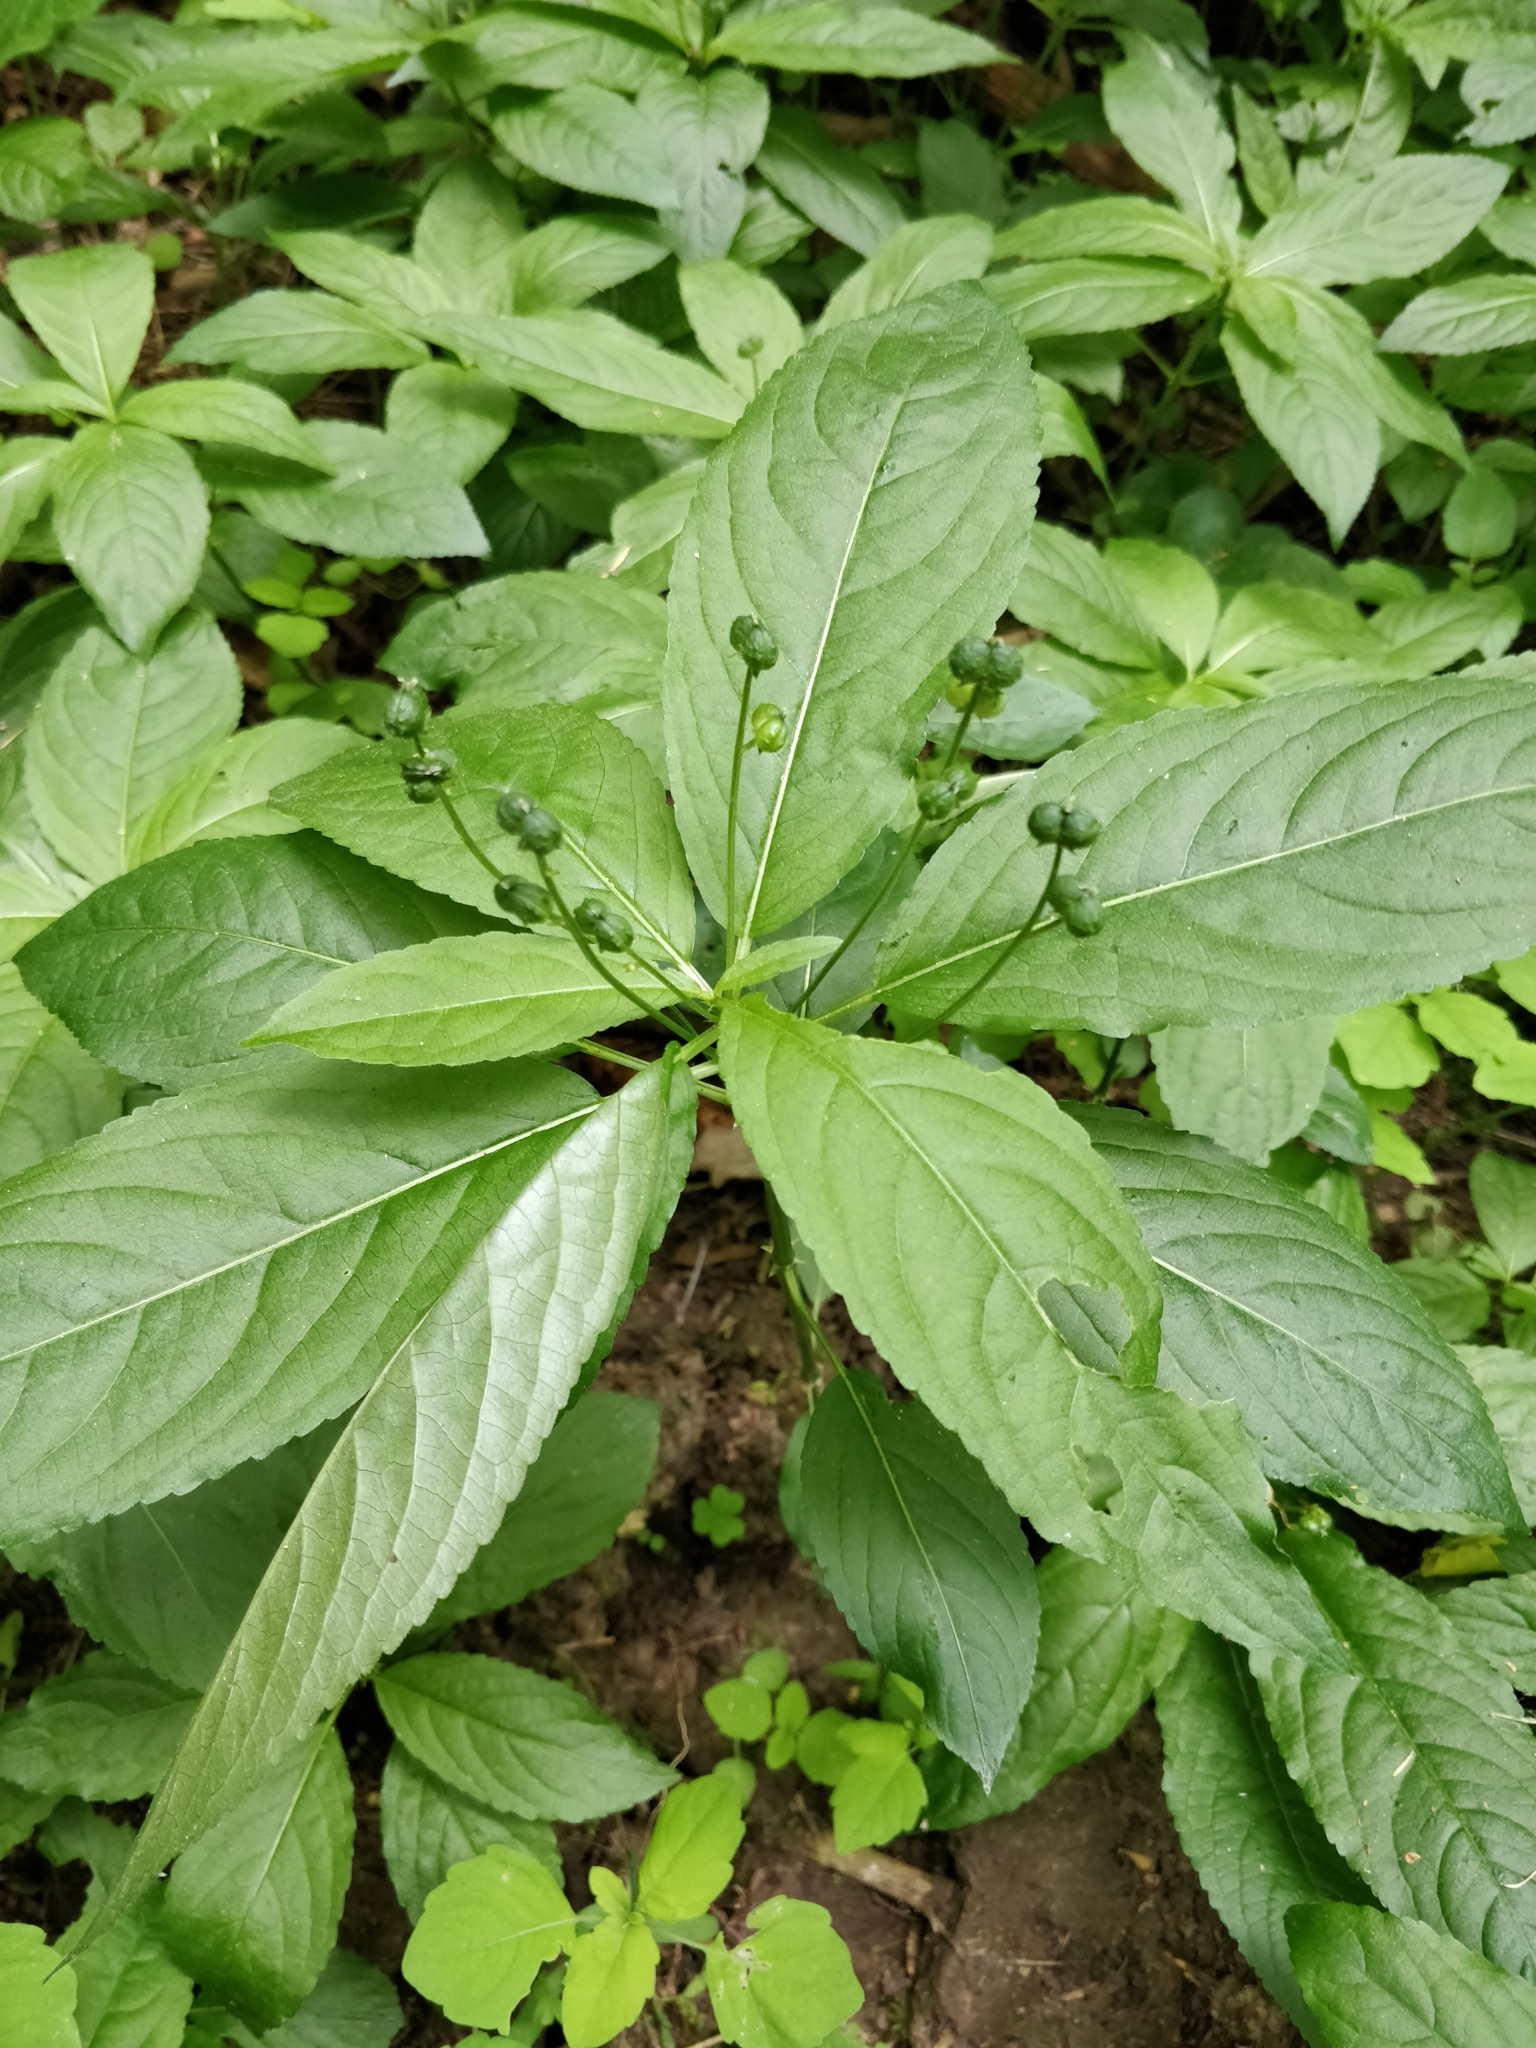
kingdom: Plantae
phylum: Tracheophyta
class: Magnoliopsida
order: Malpighiales
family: Euphorbiaceae
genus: Mercurialis
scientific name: Mercurialis perennis
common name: Dog mercury
